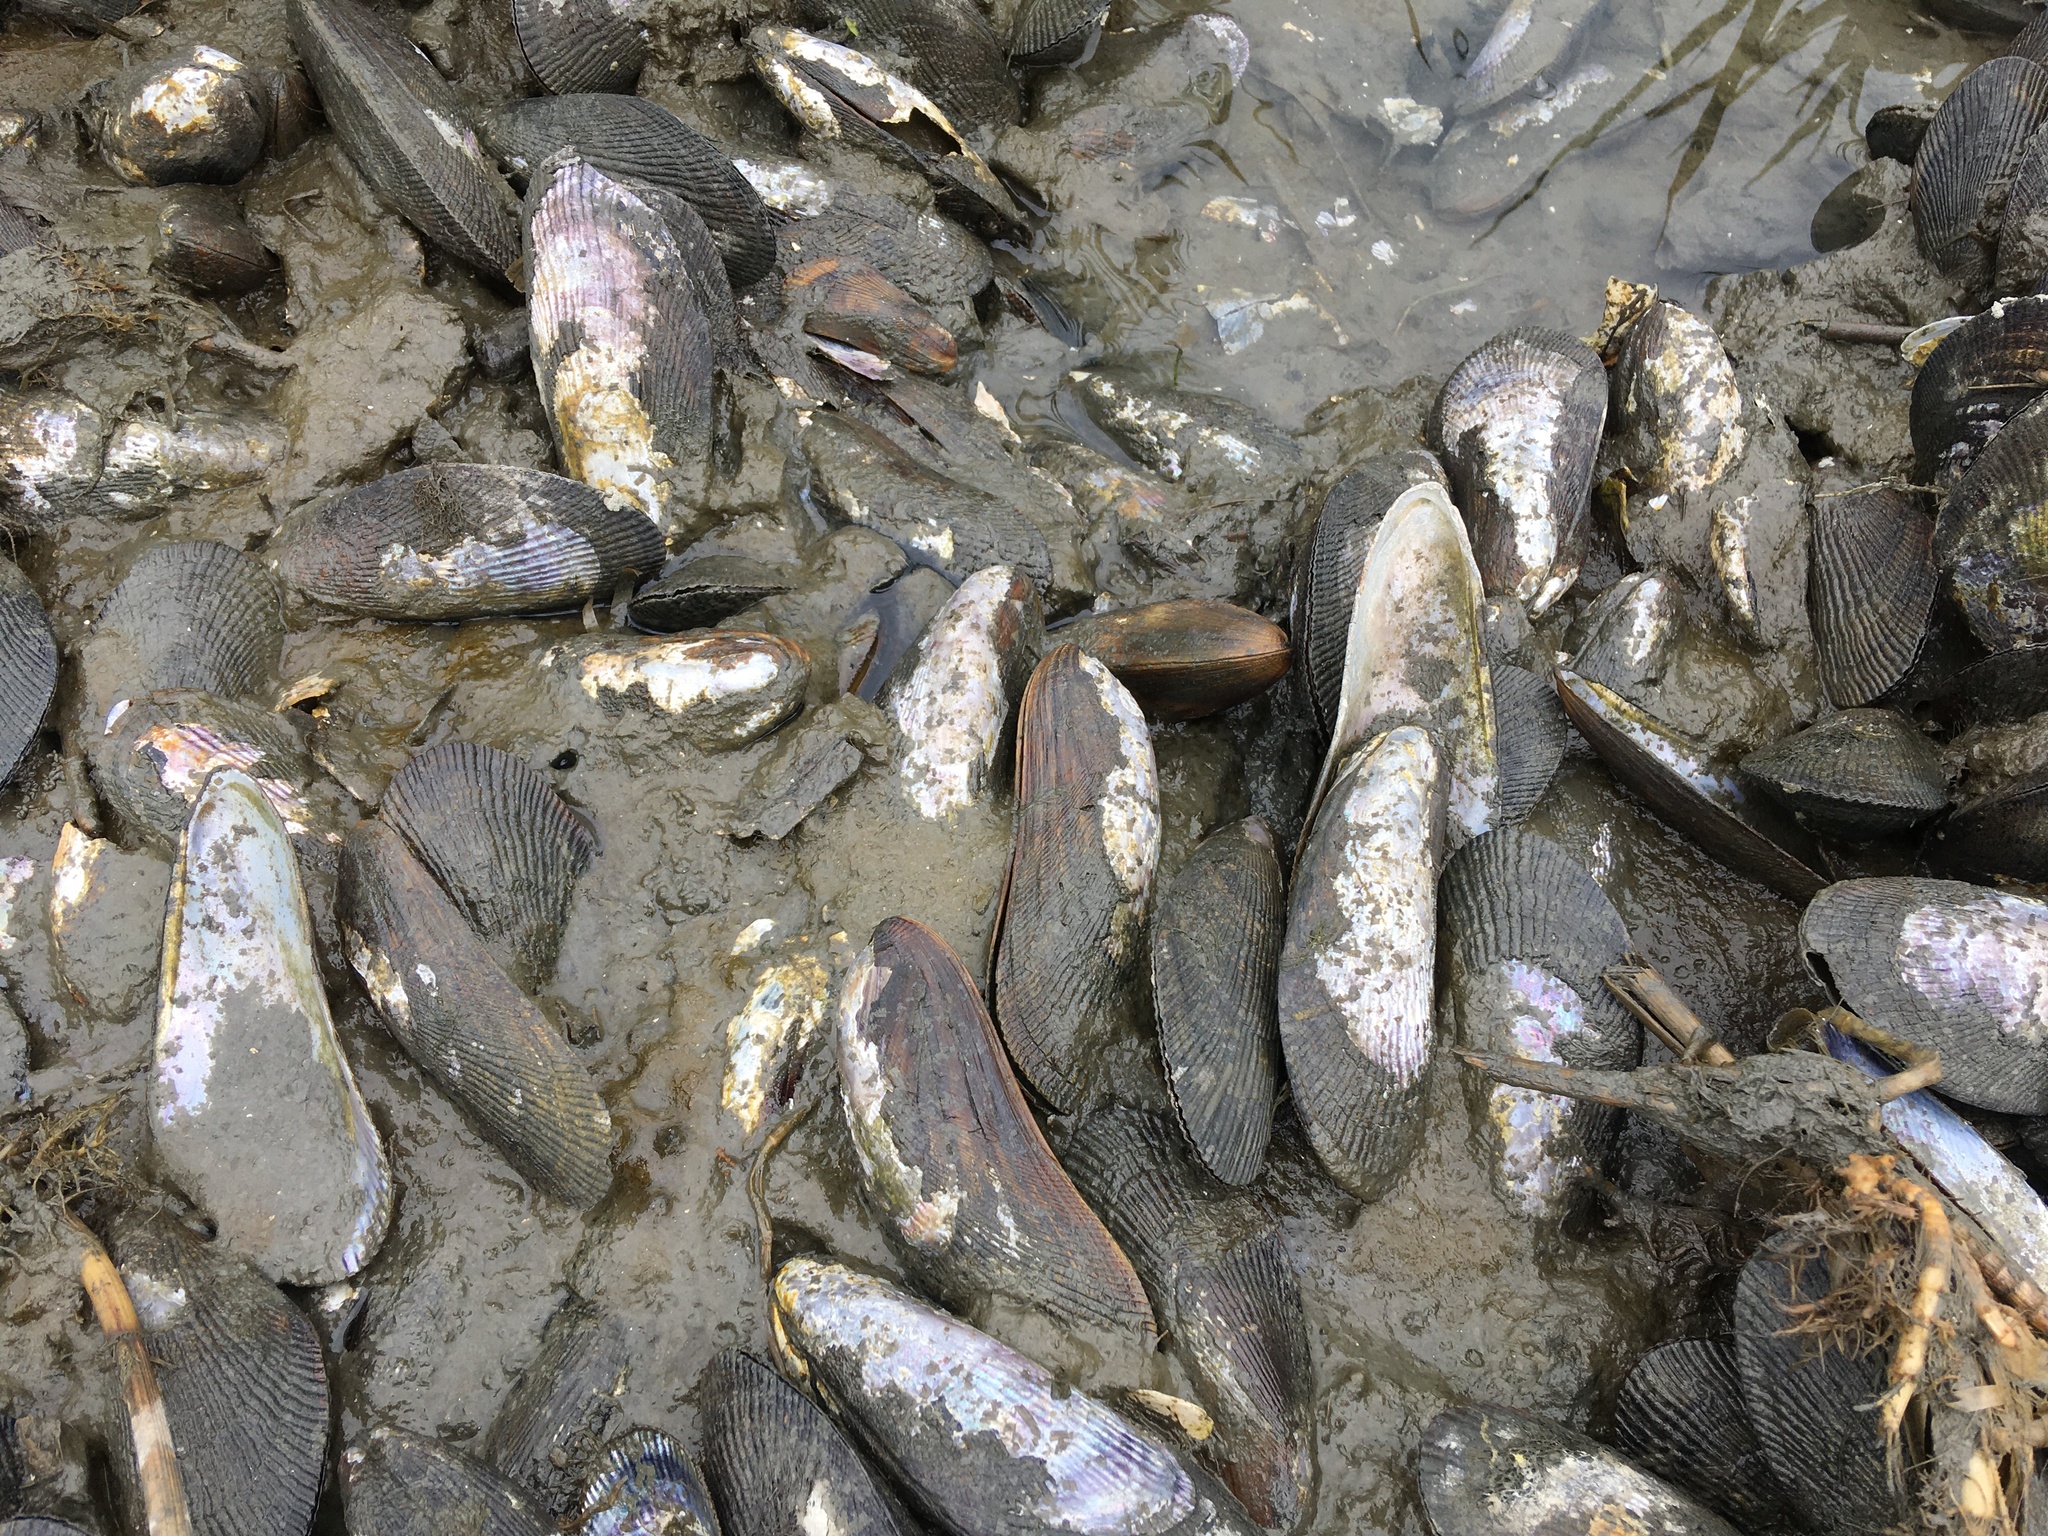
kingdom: Animalia
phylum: Mollusca
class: Bivalvia
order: Mytilida
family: Mytilidae
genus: Geukensia
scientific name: Geukensia demissa
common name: Ribbed mussel
